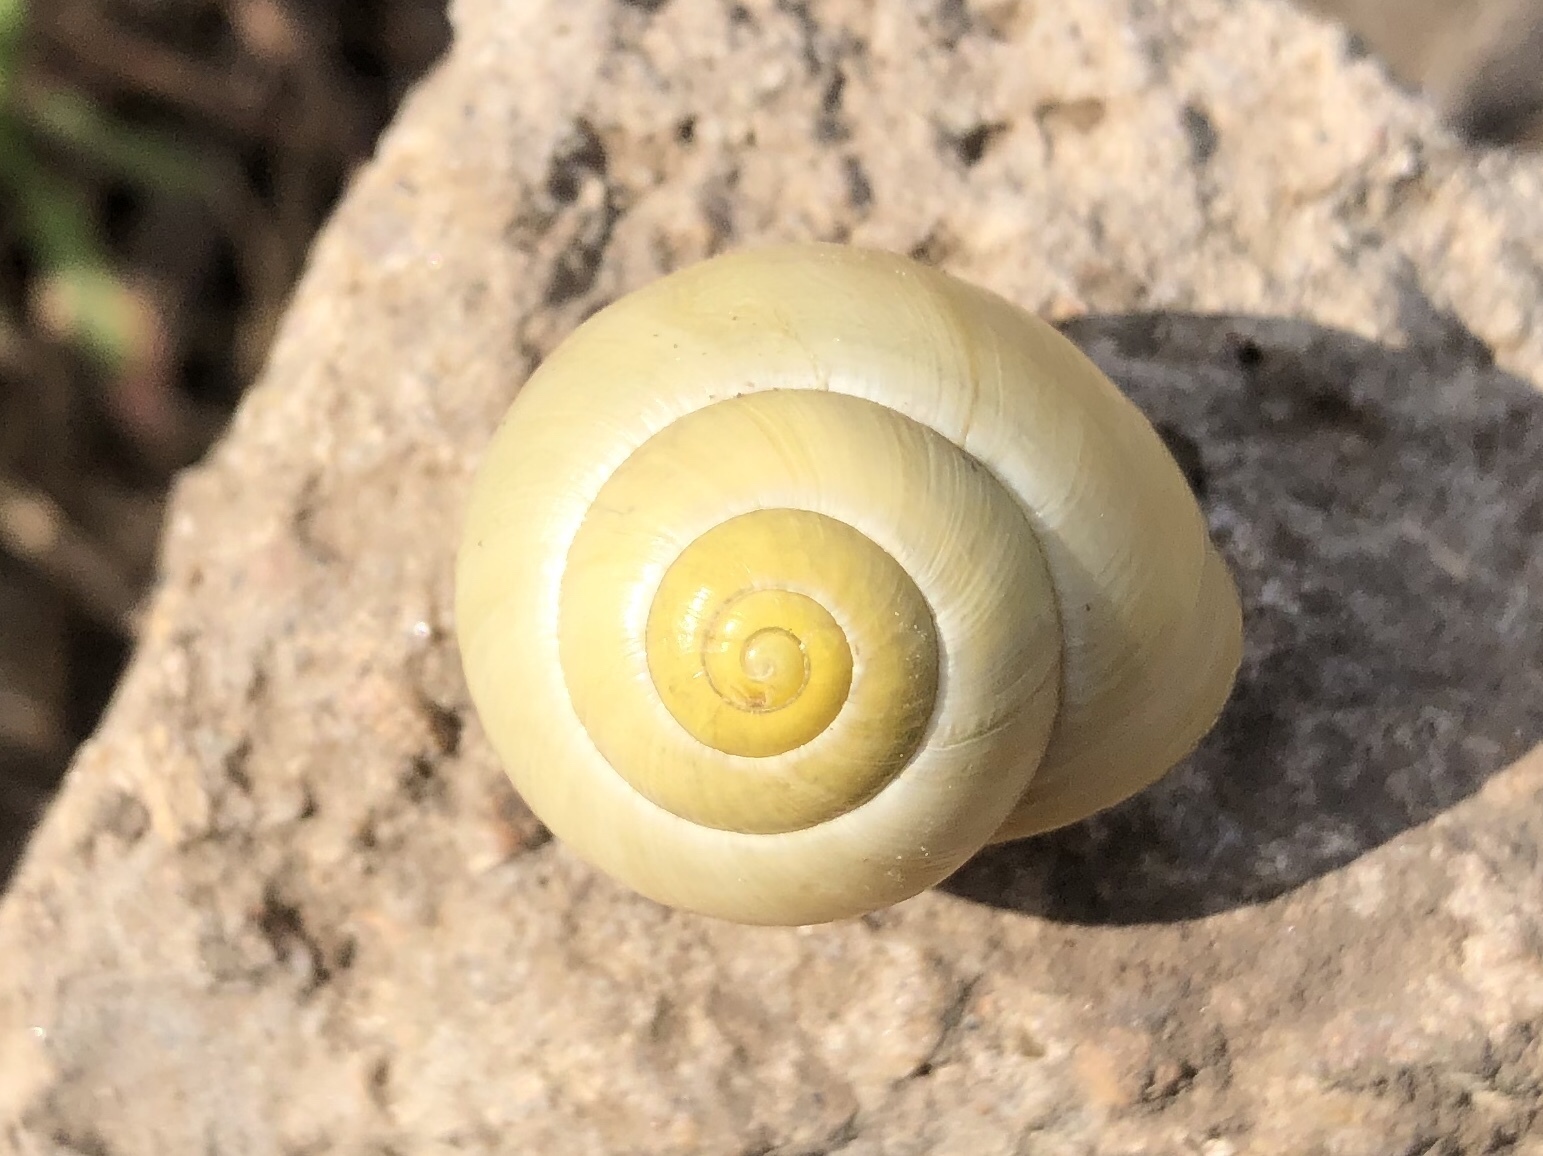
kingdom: Animalia
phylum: Mollusca
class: Gastropoda
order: Stylommatophora
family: Helicidae
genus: Cepaea
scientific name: Cepaea hortensis
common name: White-lip gardensnail
